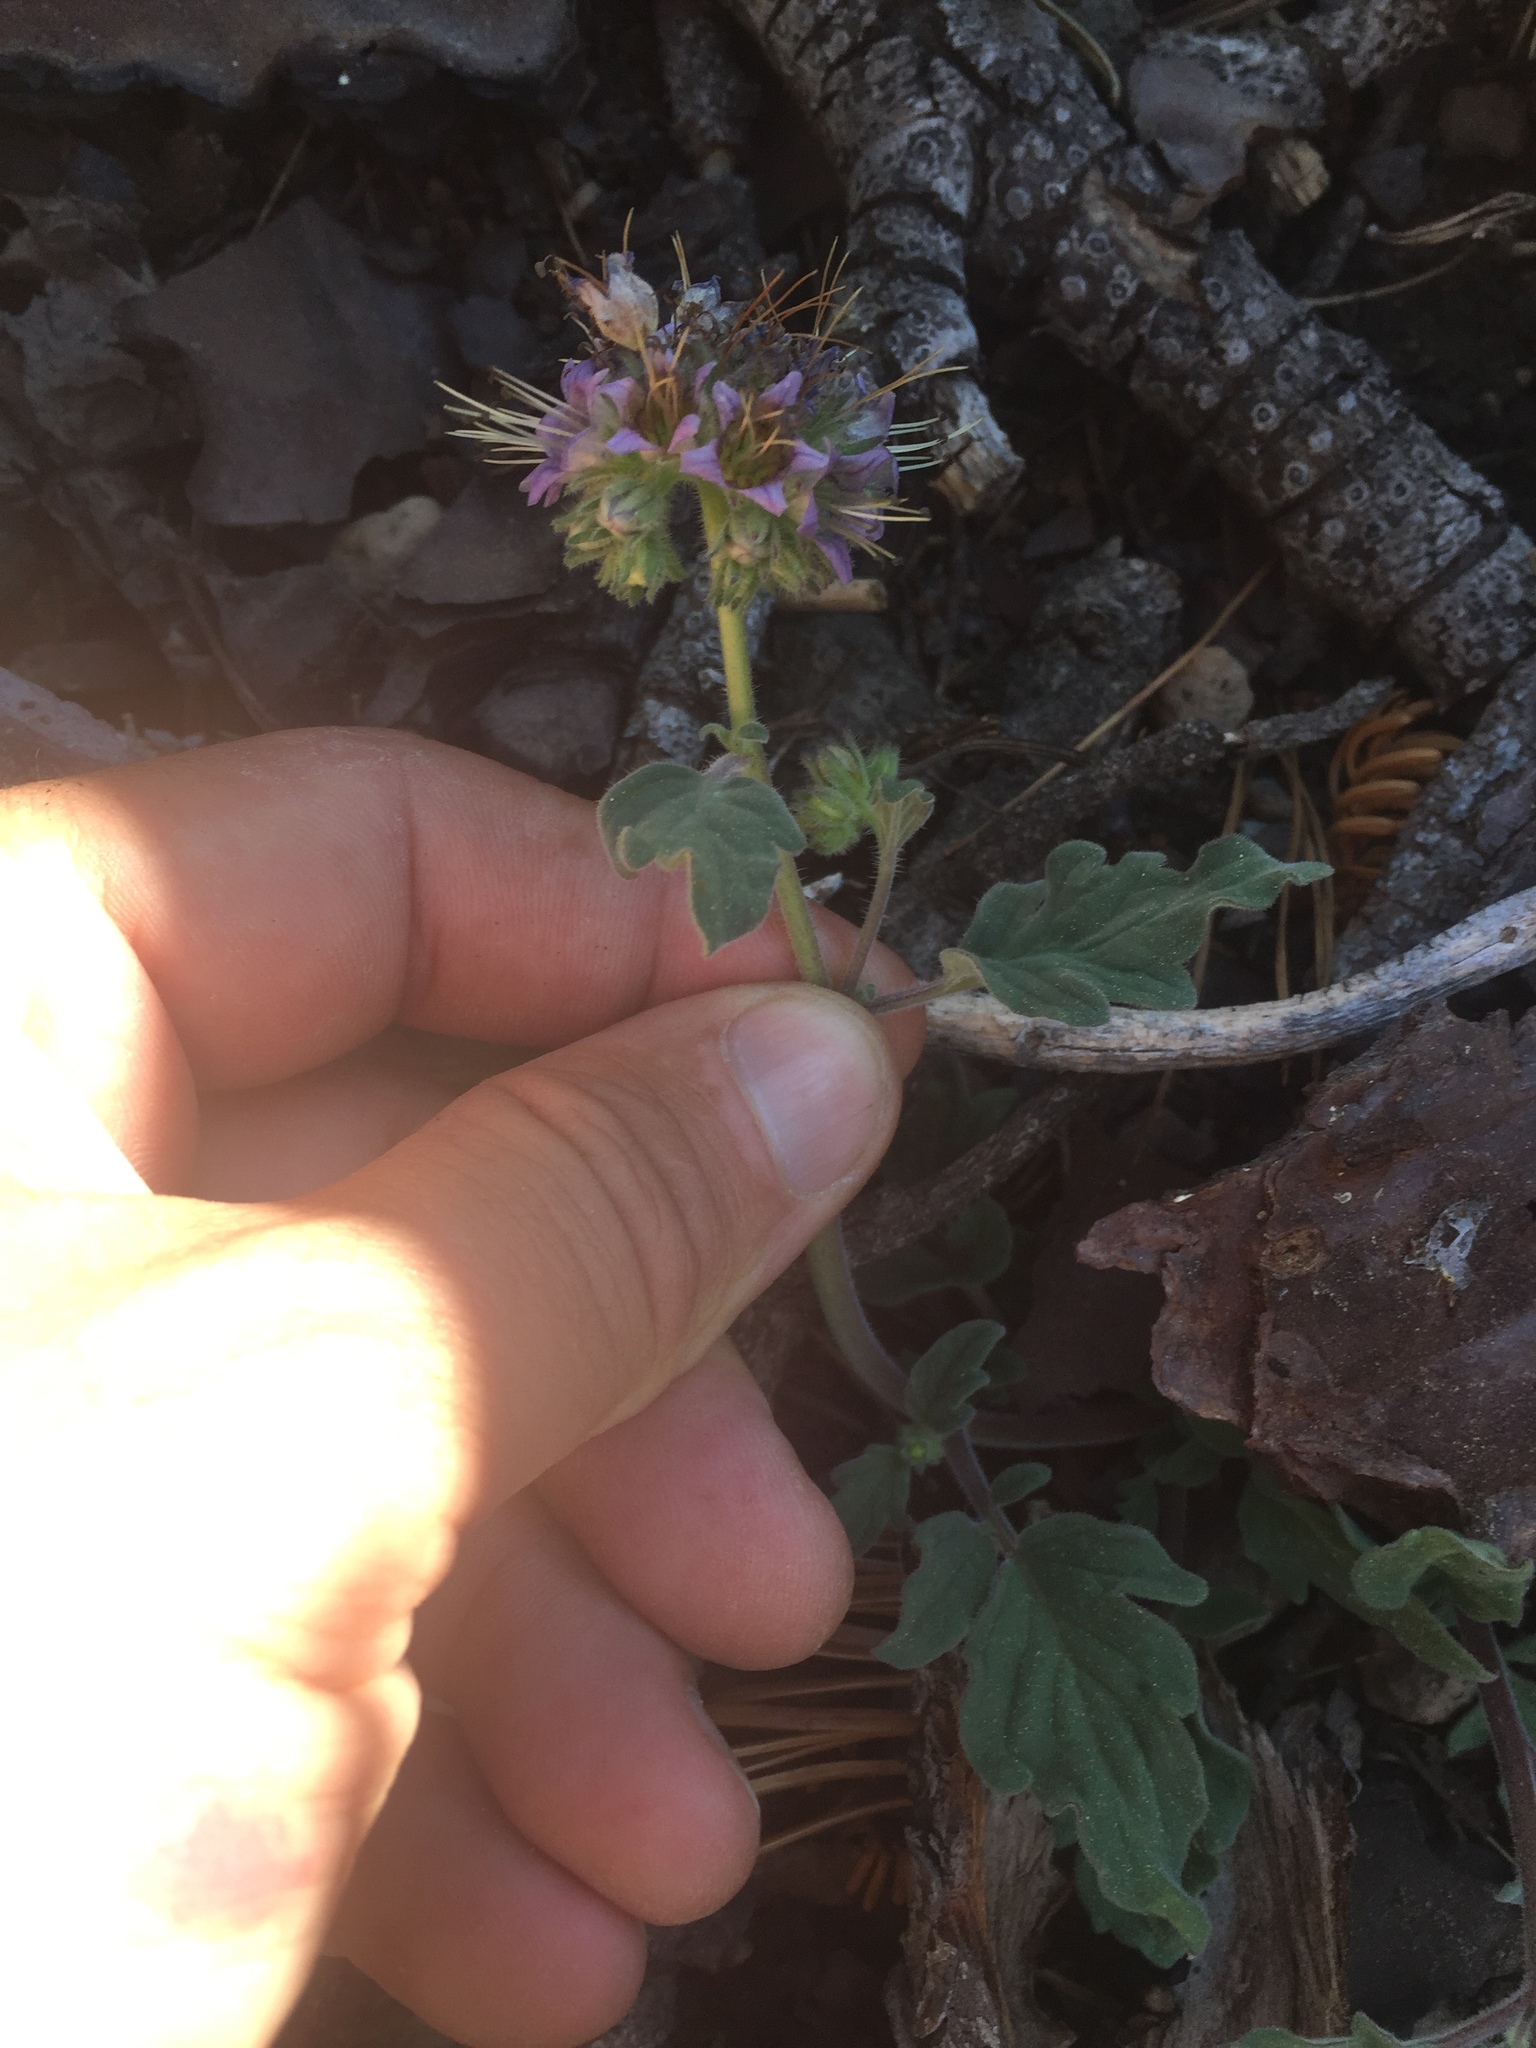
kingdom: Plantae
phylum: Tracheophyta
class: Magnoliopsida
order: Boraginales
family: Hydrophyllaceae
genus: Phacelia
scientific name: Phacelia hydrophylloides
